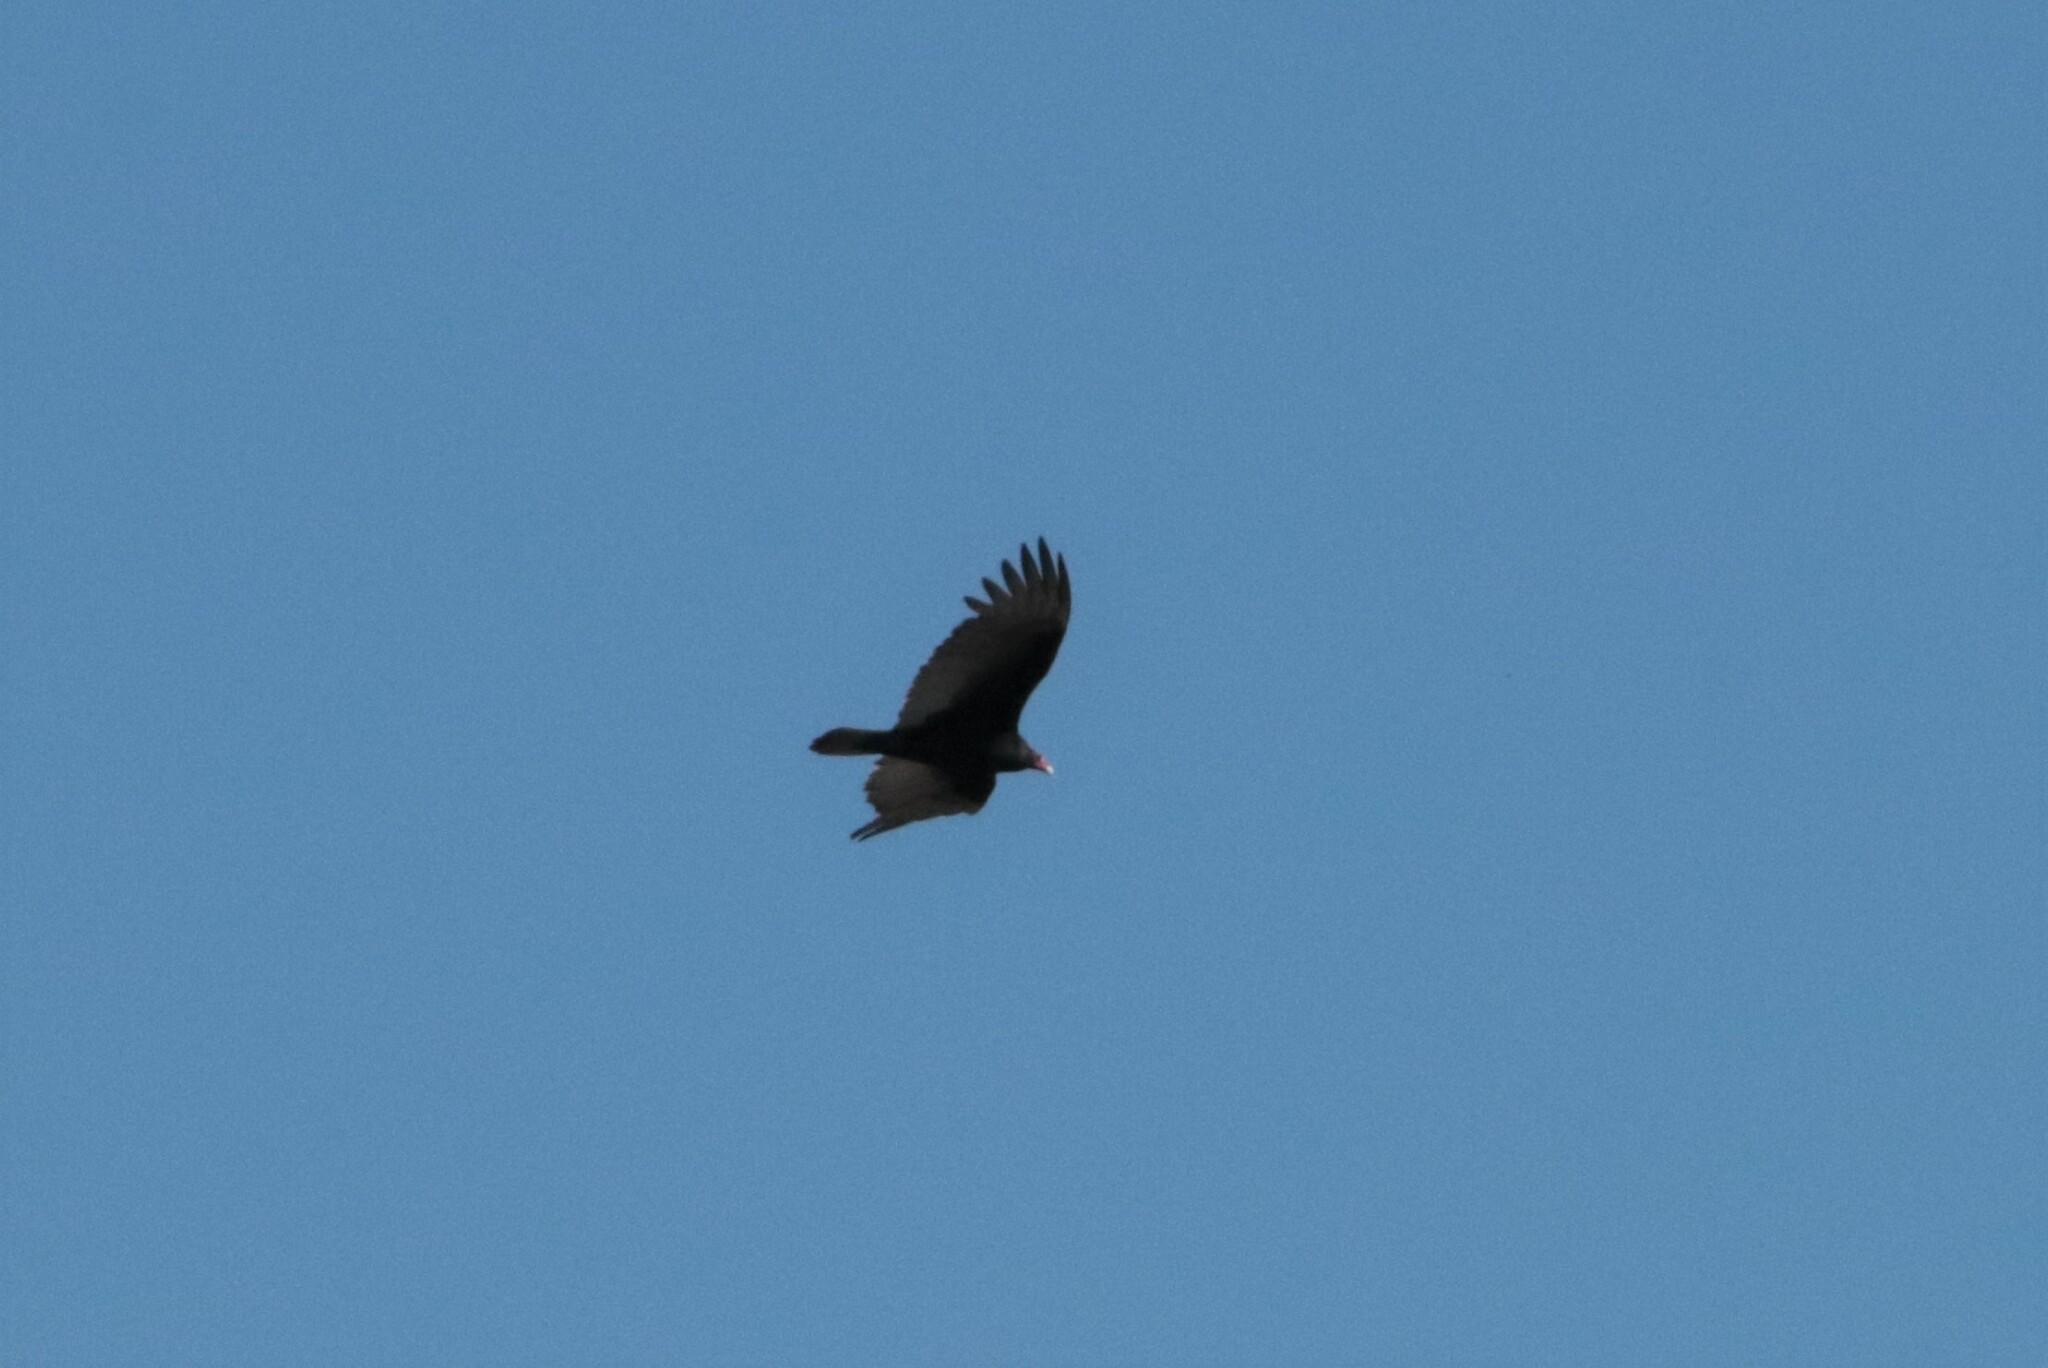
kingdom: Animalia
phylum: Chordata
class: Aves
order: Accipitriformes
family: Cathartidae
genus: Cathartes
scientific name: Cathartes aura
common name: Turkey vulture
